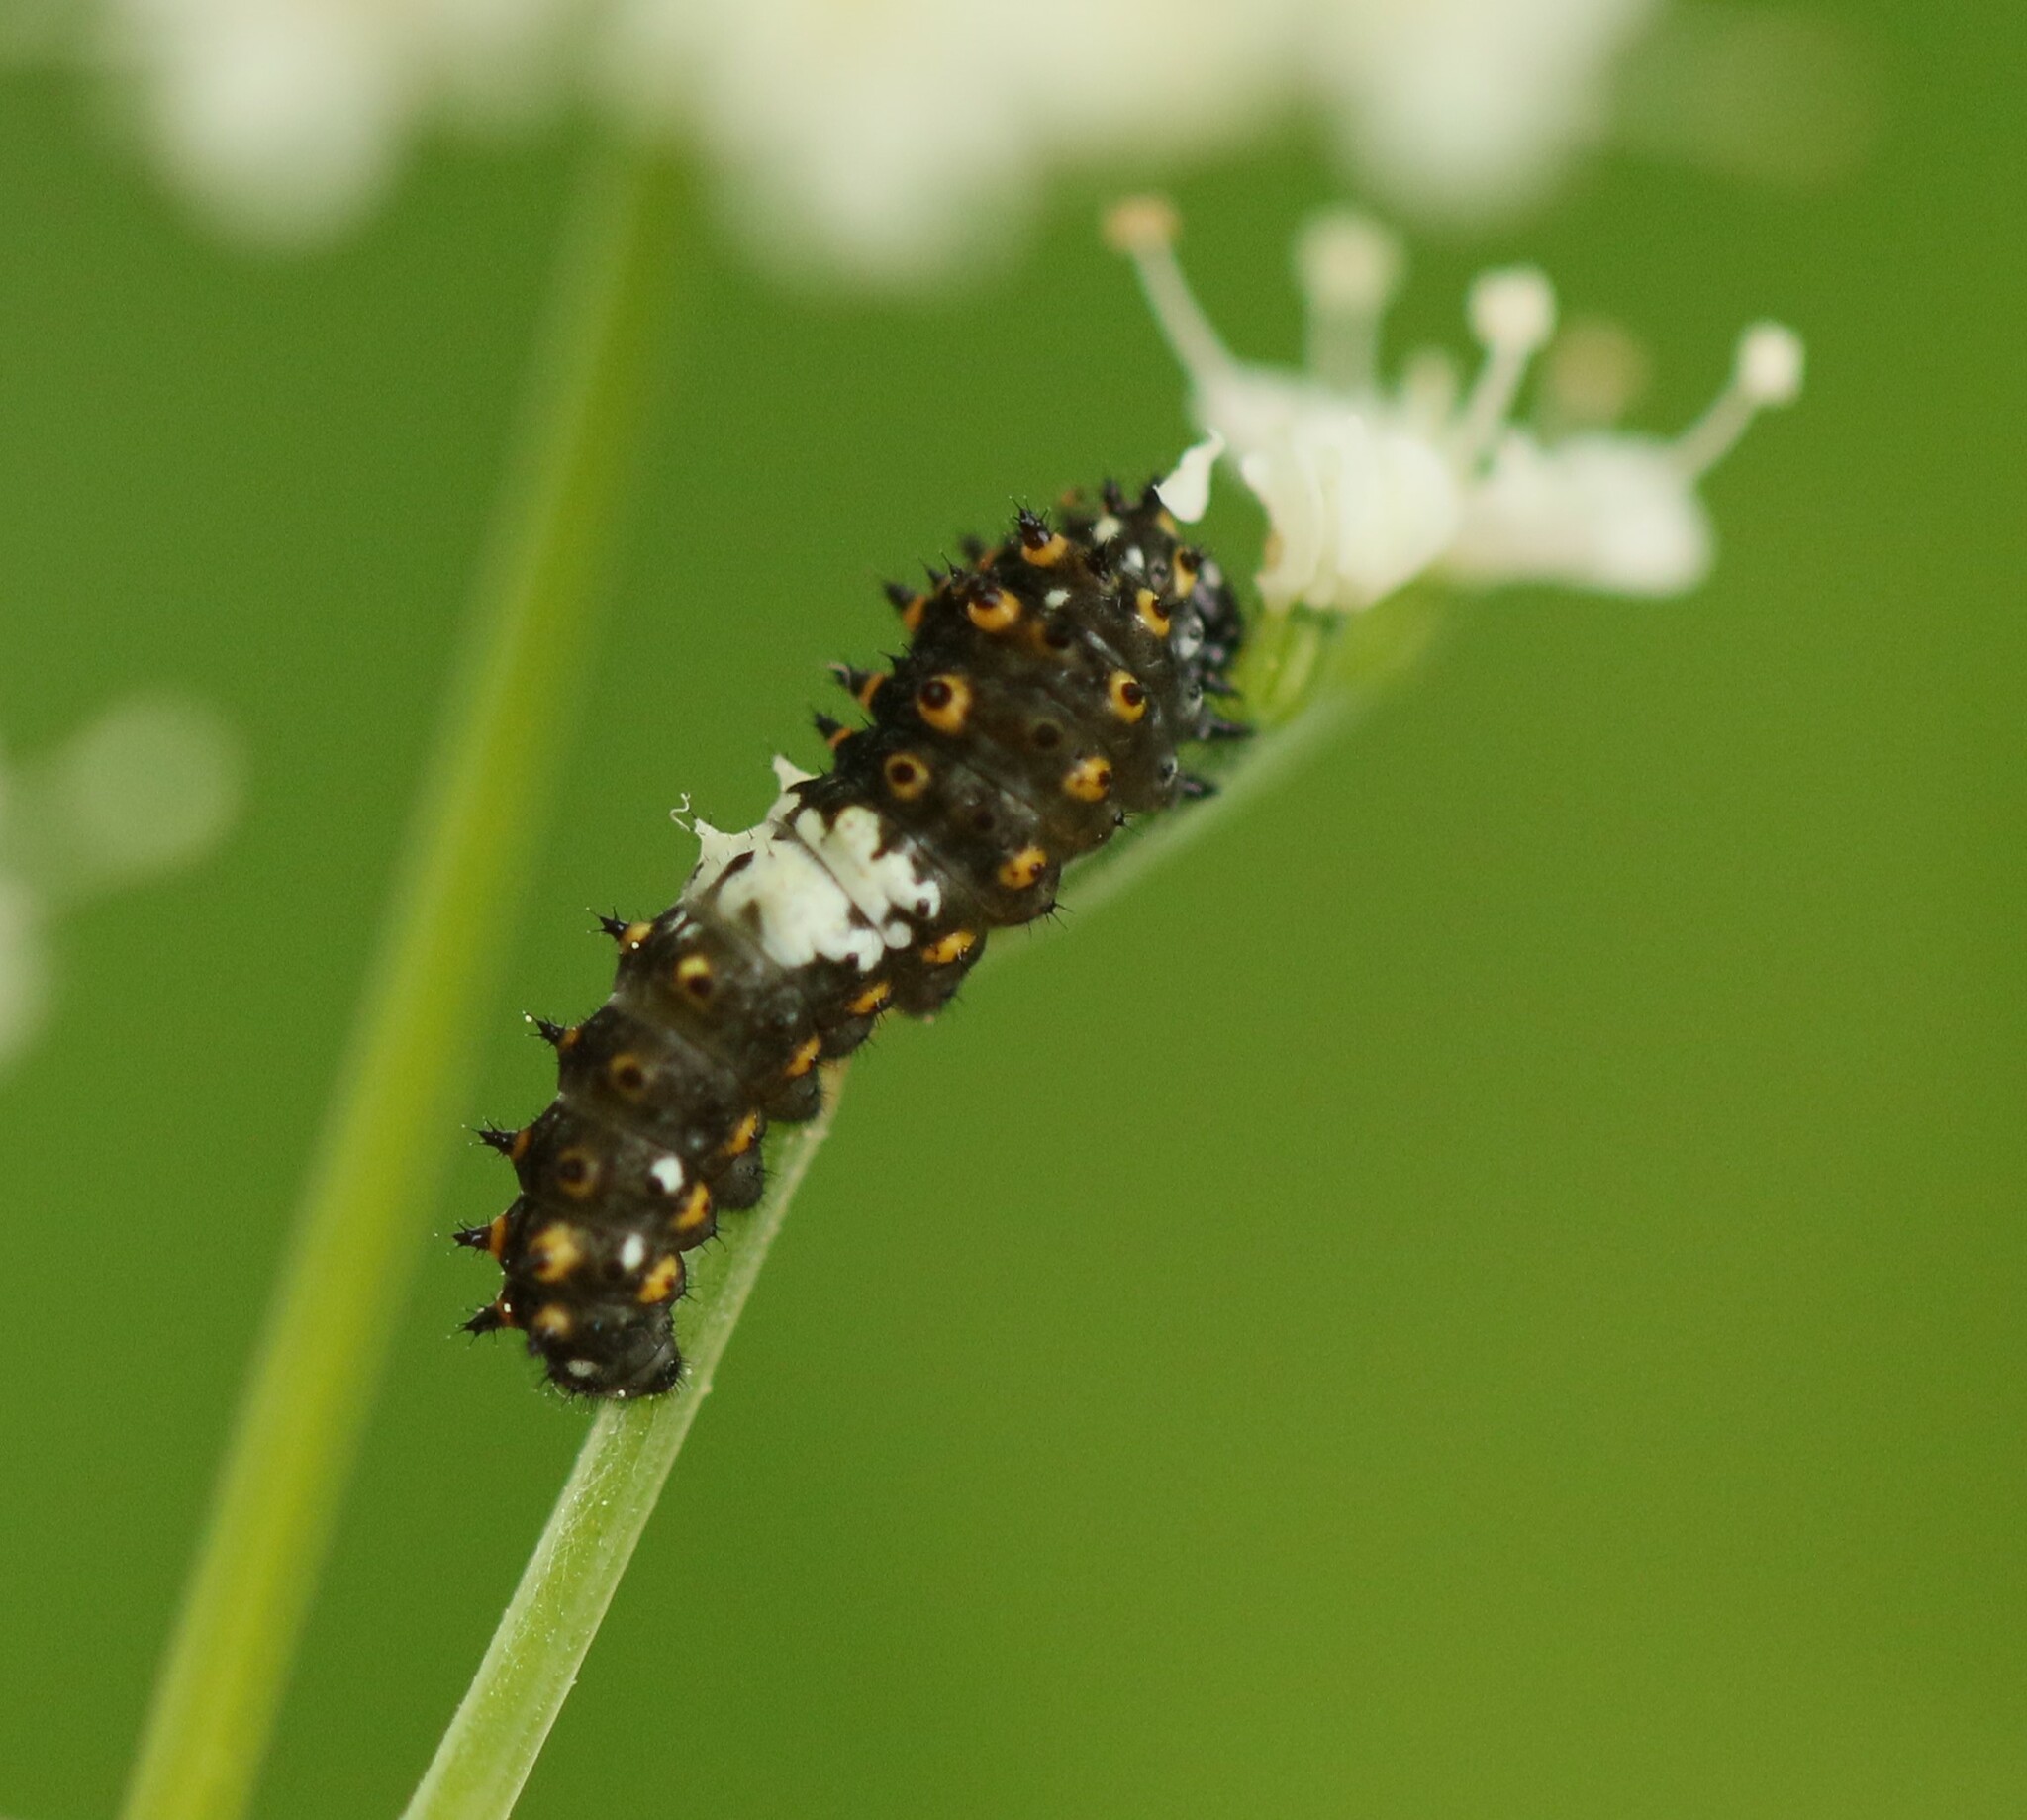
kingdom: Animalia
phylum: Arthropoda
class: Insecta
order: Lepidoptera
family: Papilionidae
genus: Papilio
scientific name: Papilio polyxenes
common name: Black swallowtail
